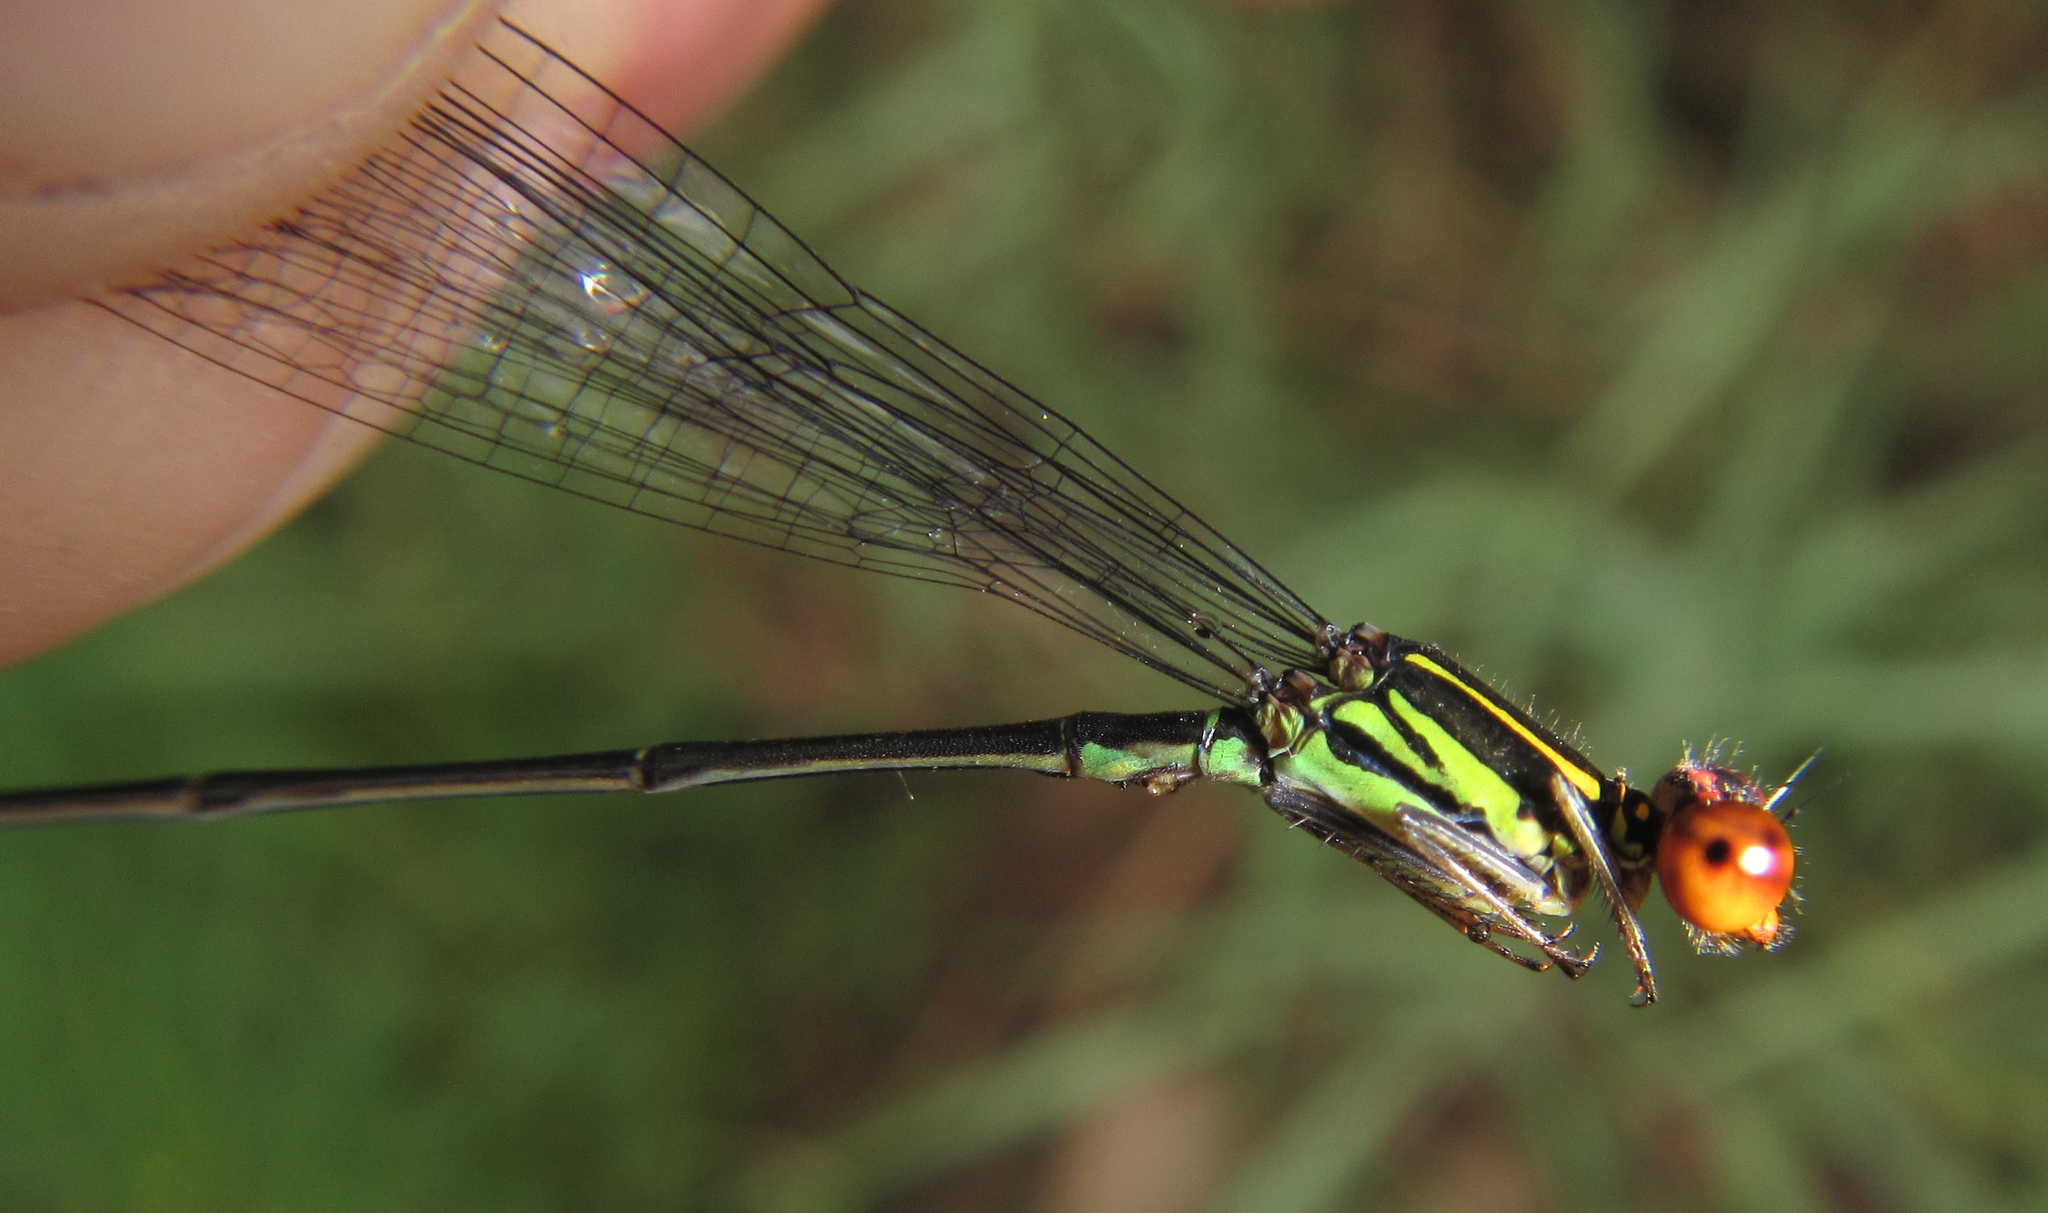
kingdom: Animalia
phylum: Arthropoda
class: Insecta
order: Odonata
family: Coenagrionidae
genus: Pseudagrion
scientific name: Pseudagrion hageni
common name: Painted sprite
